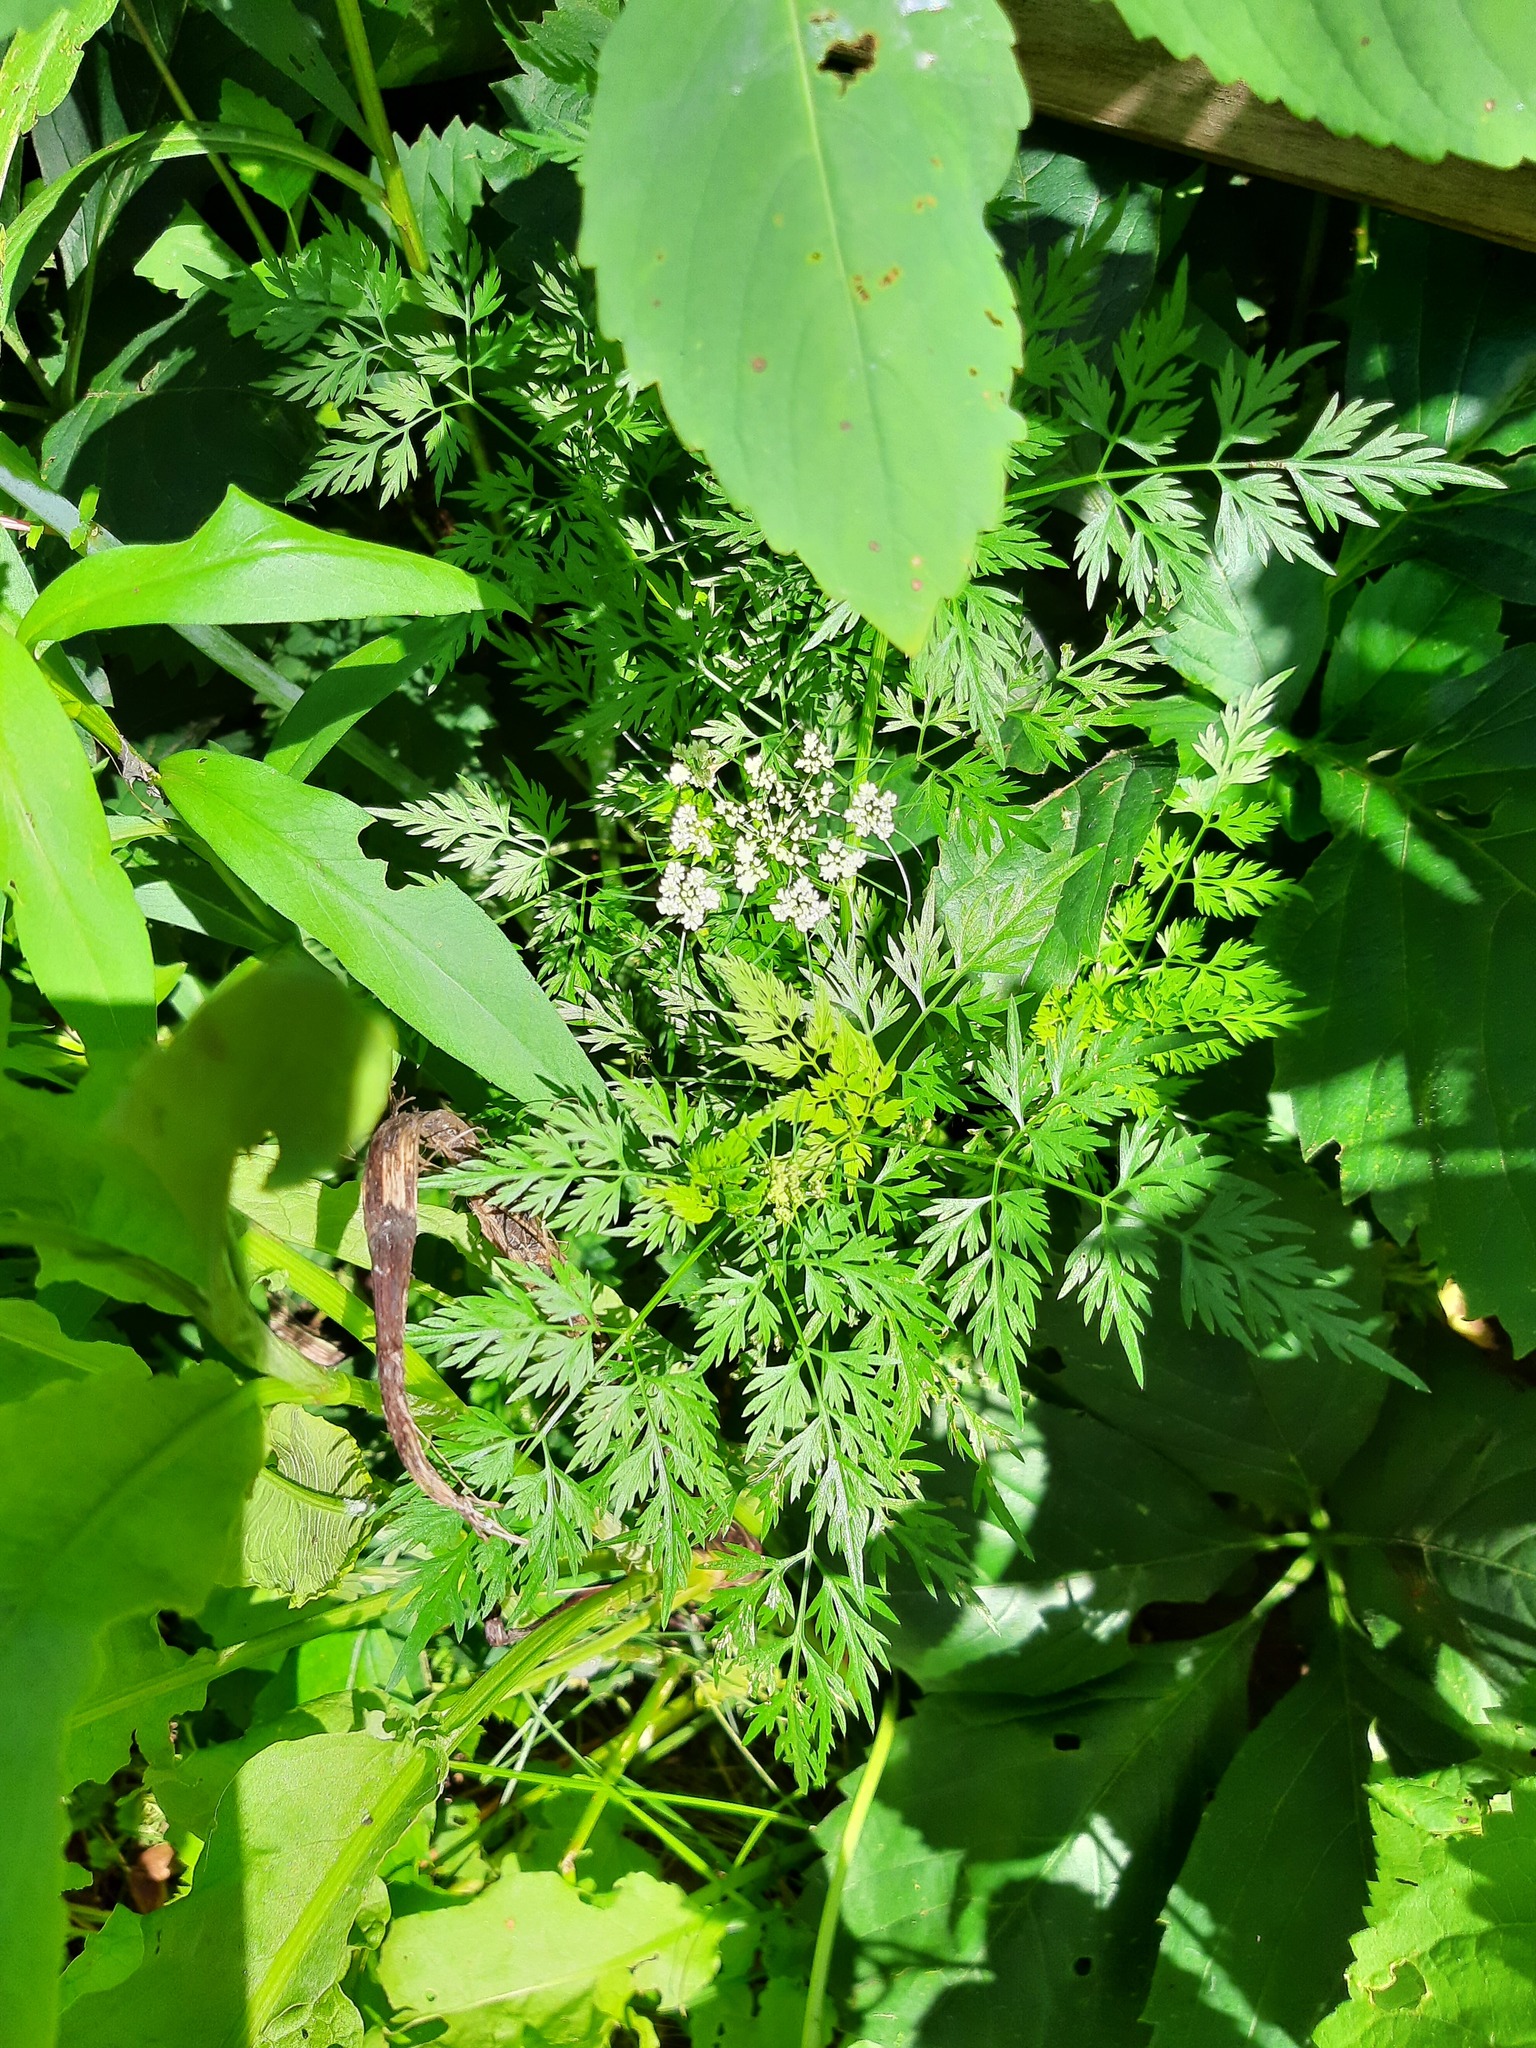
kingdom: Plantae
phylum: Tracheophyta
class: Magnoliopsida
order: Apiales
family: Apiaceae
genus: Daucus
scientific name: Daucus carota
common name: Wild carrot
